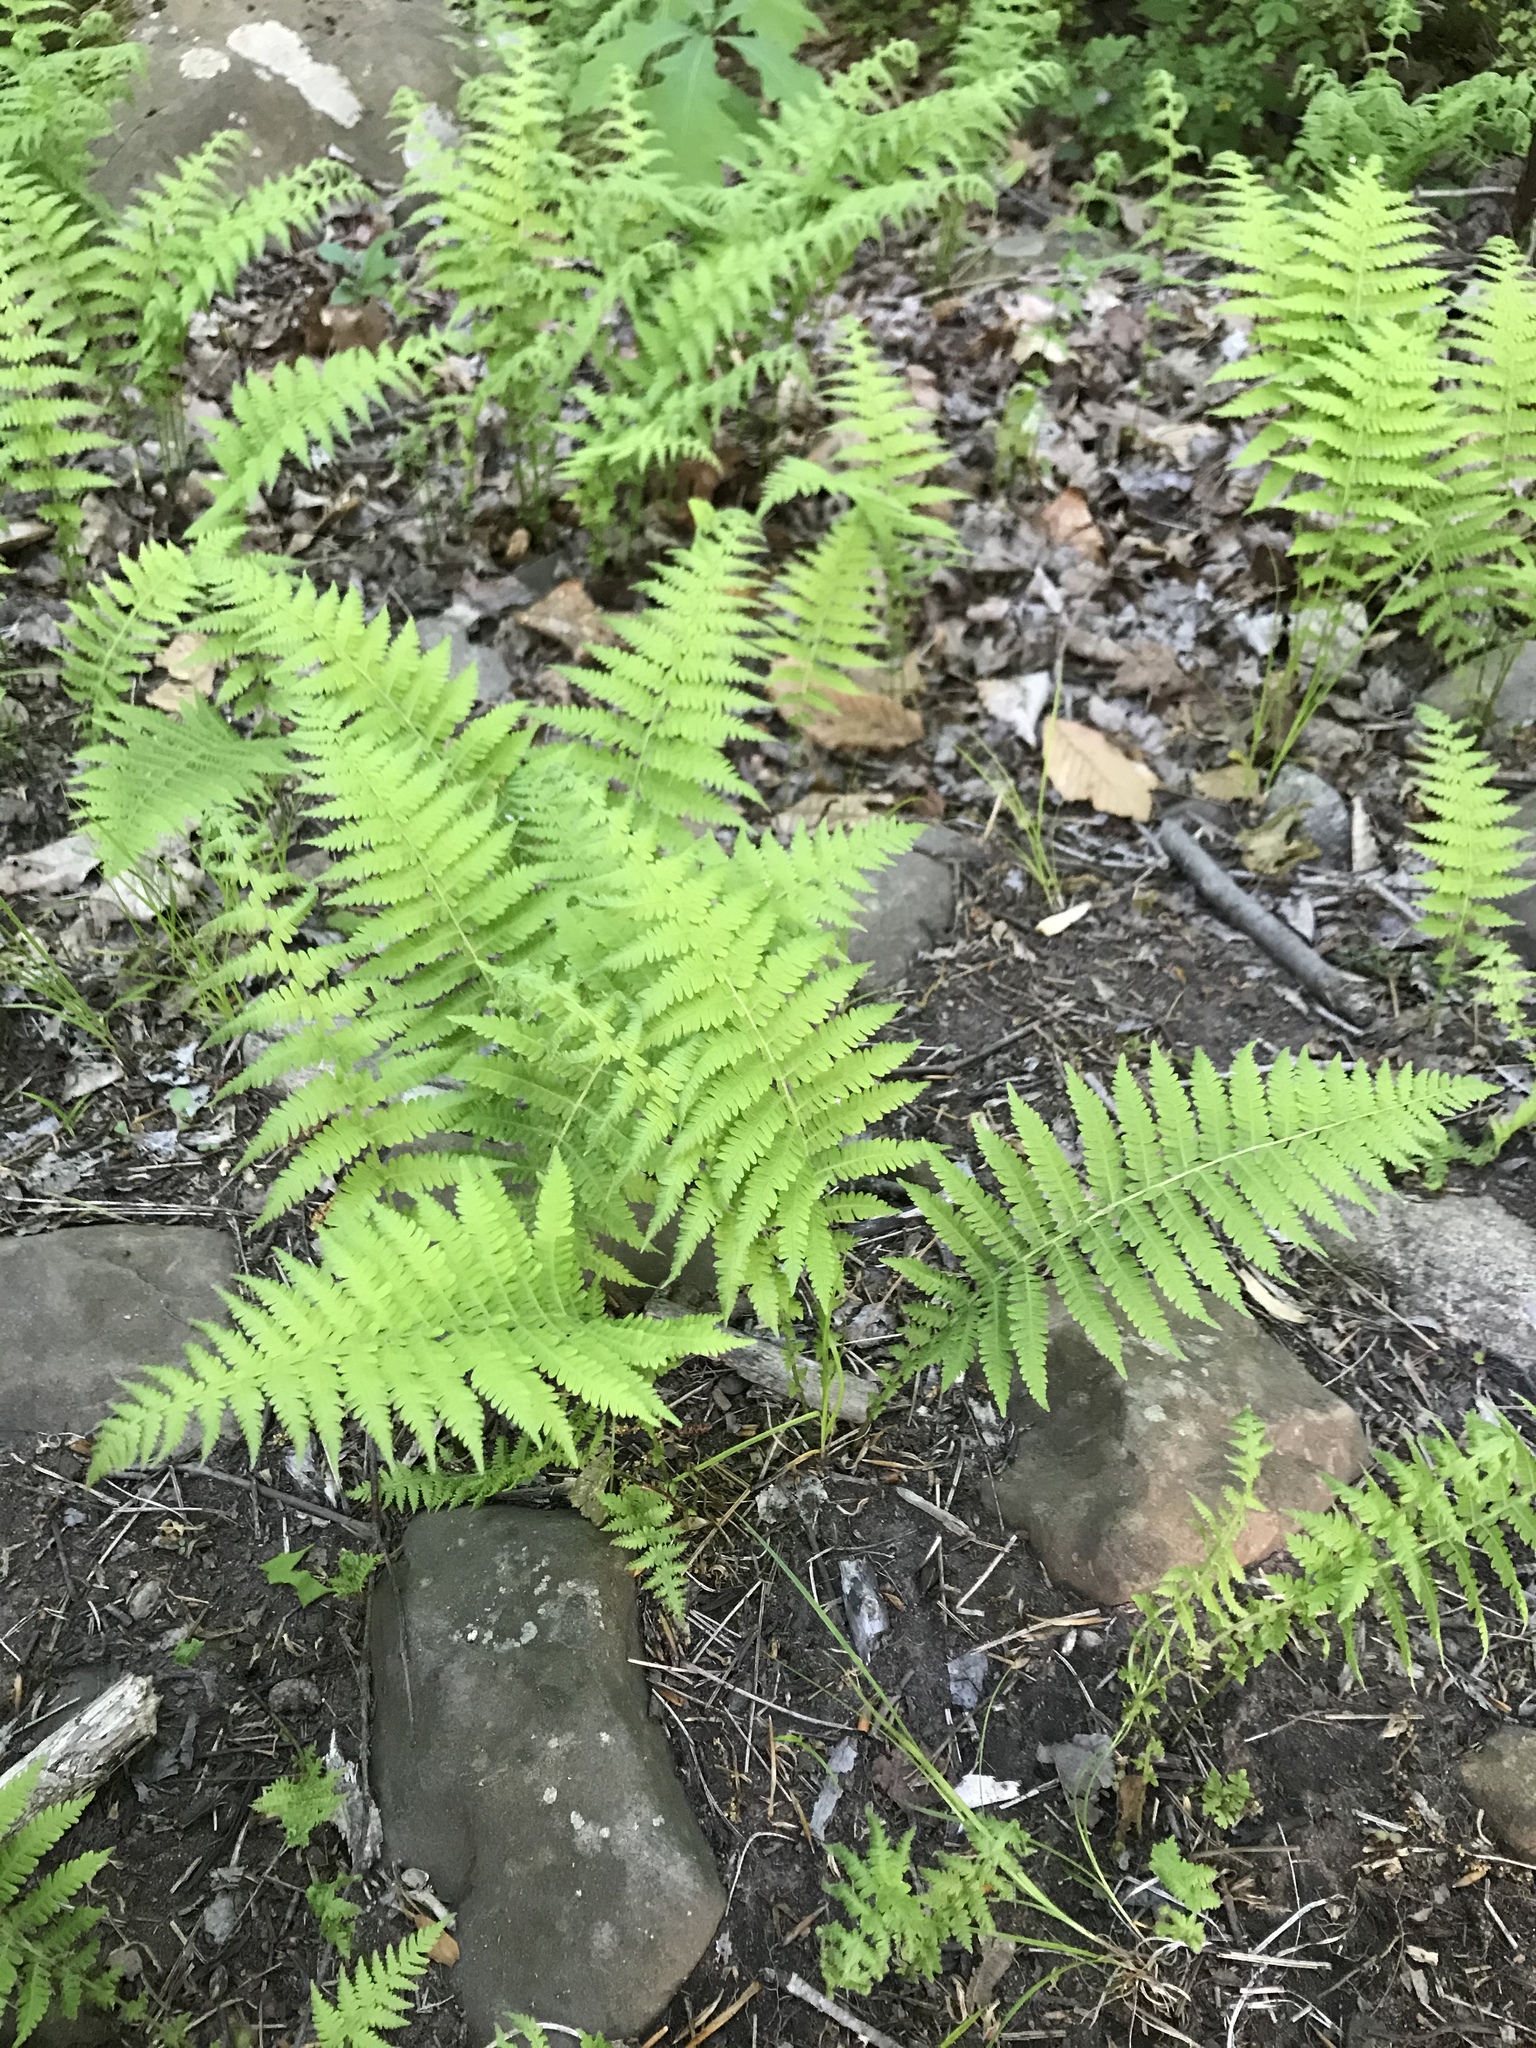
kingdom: Plantae
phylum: Tracheophyta
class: Polypodiopsida
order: Polypodiales
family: Thelypteridaceae
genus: Amauropelta
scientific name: Amauropelta noveboracensis
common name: New york fern
